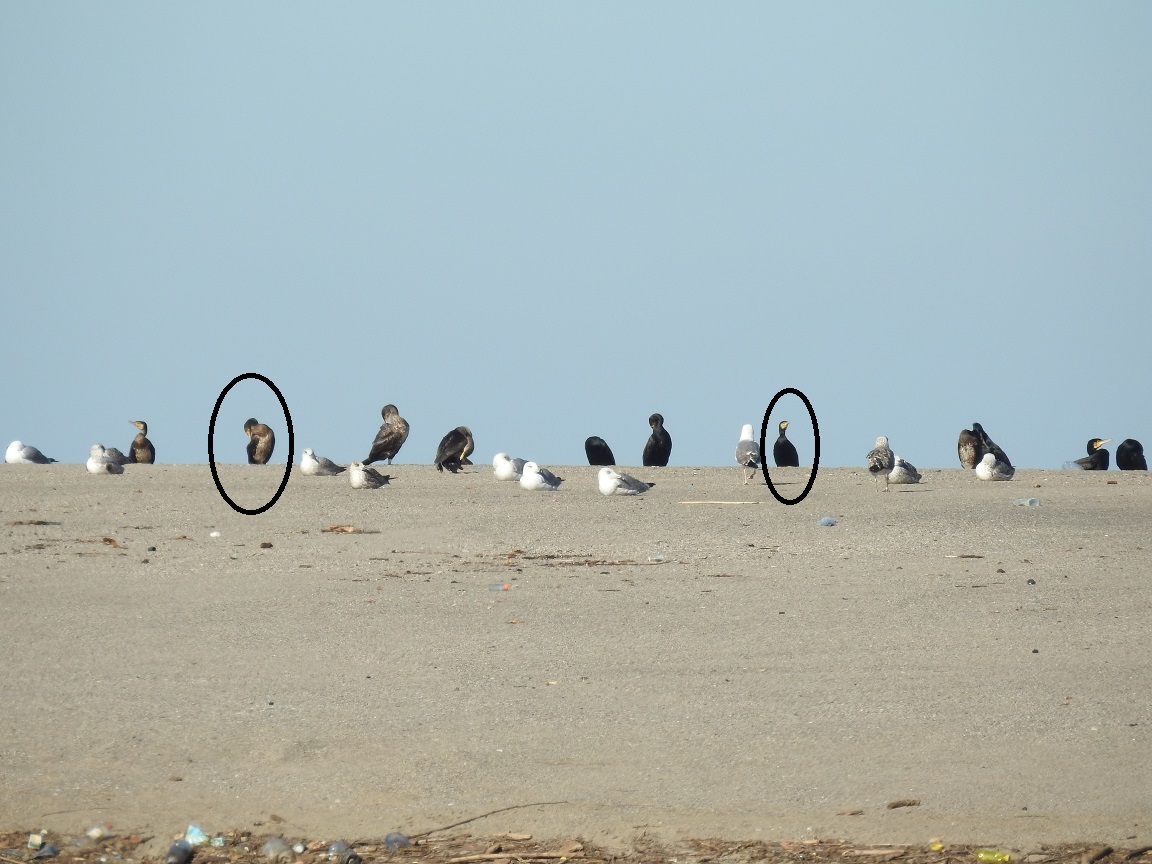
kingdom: Animalia
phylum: Chordata
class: Aves
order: Suliformes
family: Phalacrocoracidae
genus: Phalacrocorax
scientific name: Phalacrocorax carbo
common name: Great cormorant
